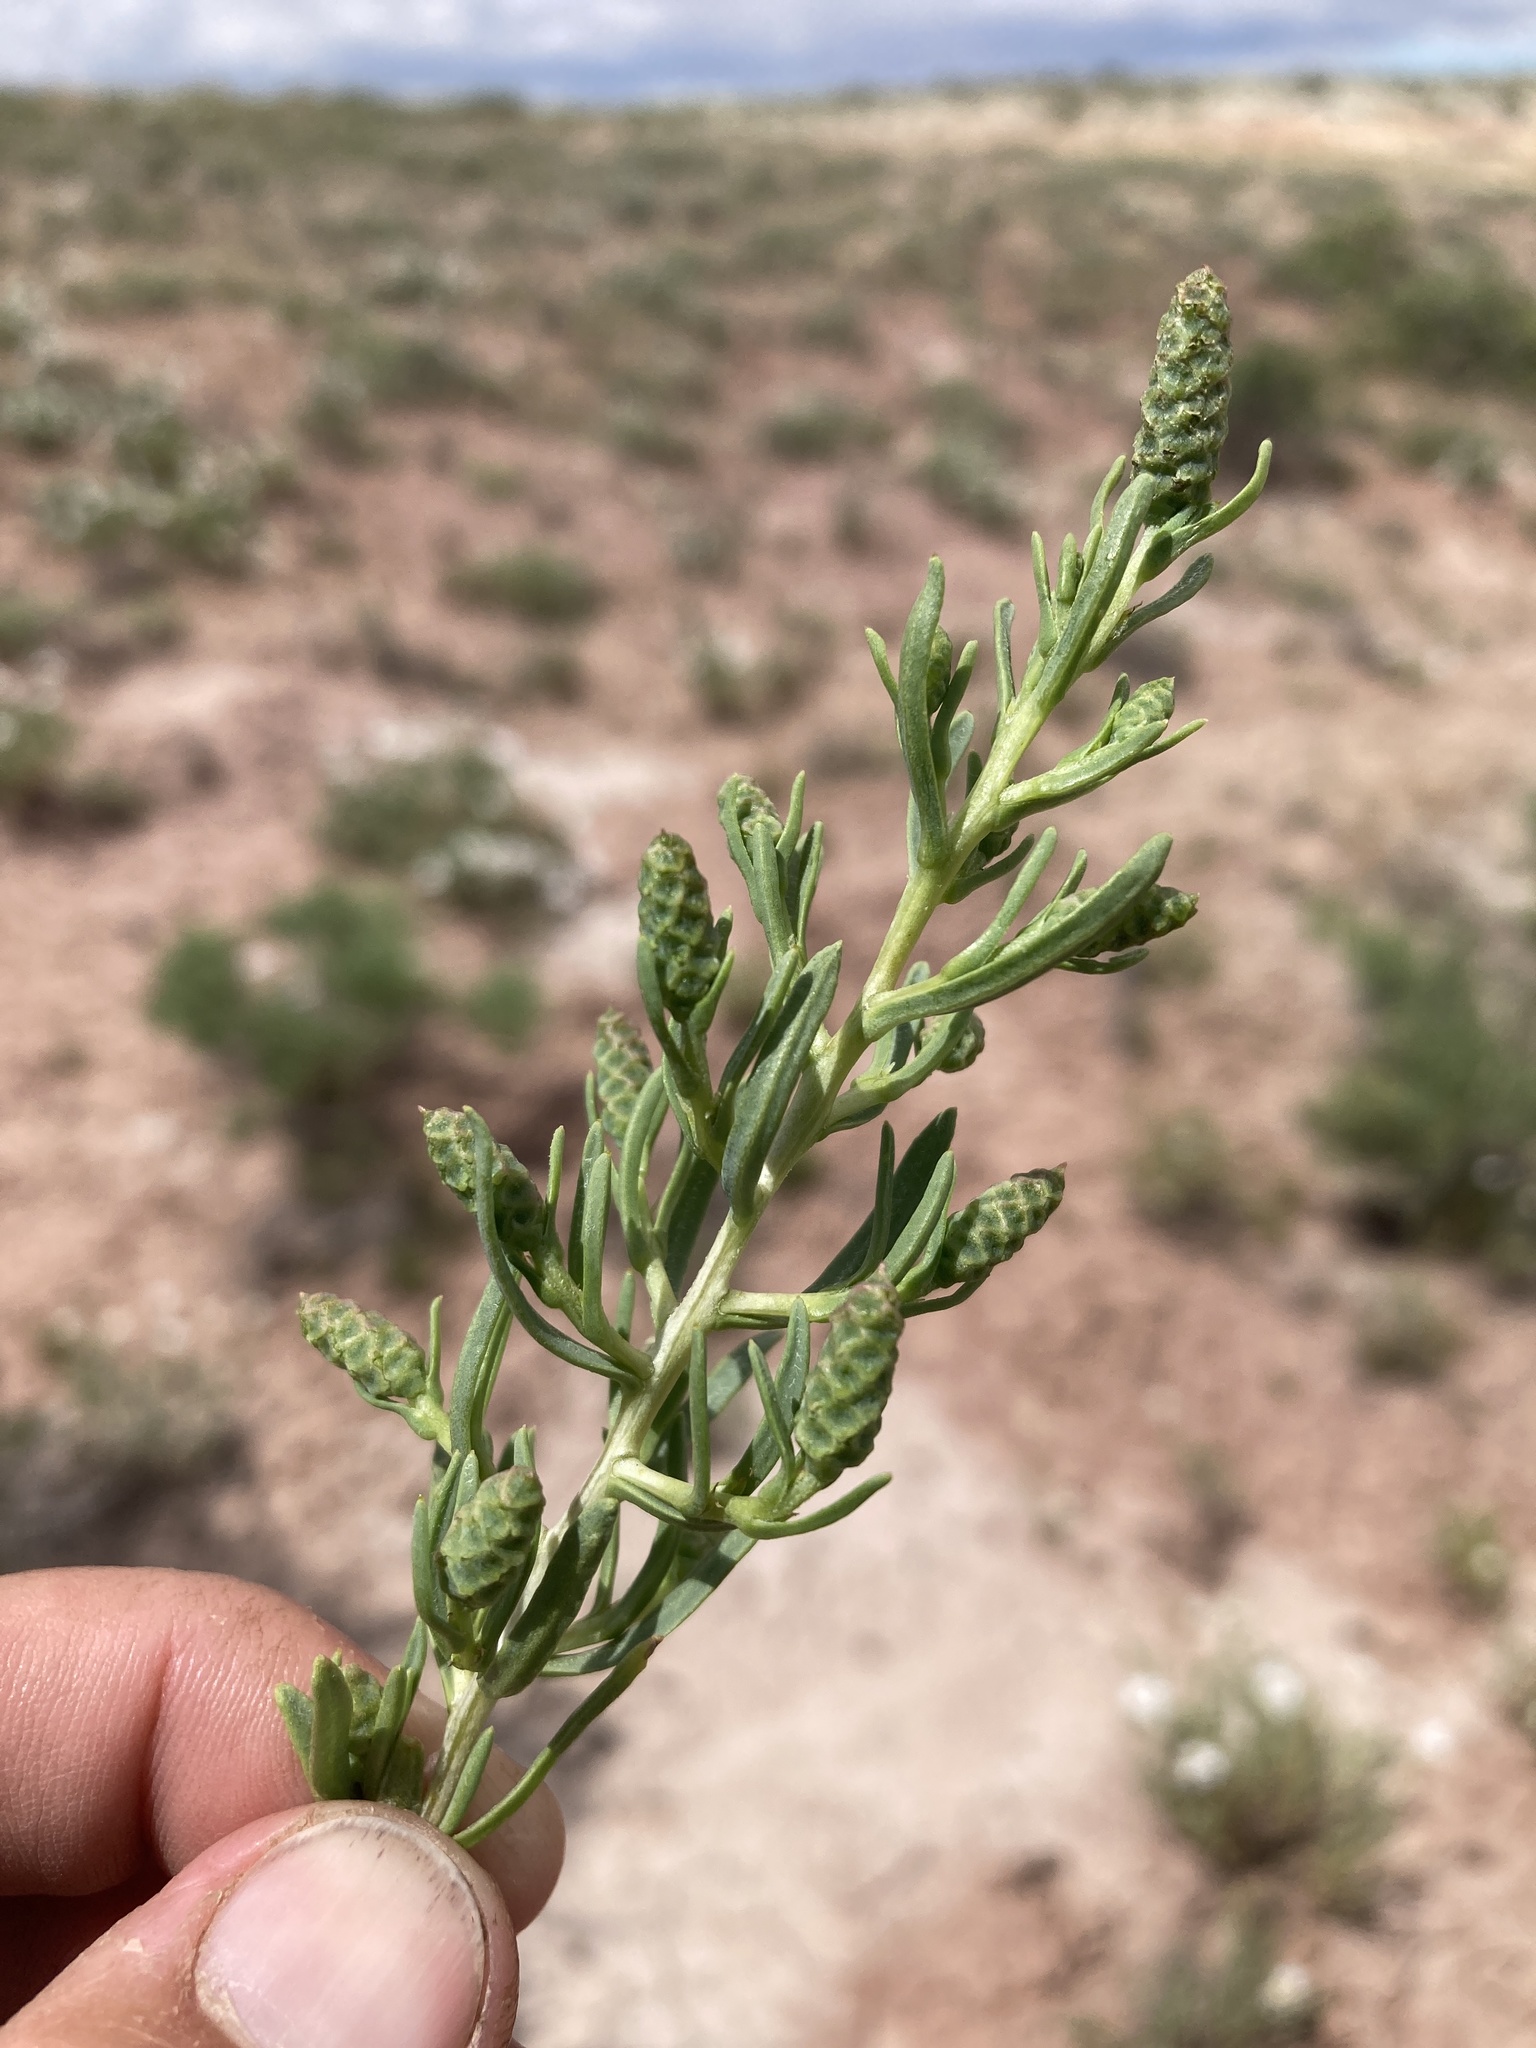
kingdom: Plantae
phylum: Tracheophyta
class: Magnoliopsida
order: Caryophyllales
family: Sarcobataceae
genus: Sarcobatus
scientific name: Sarcobatus vermiculatus
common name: Greasewood
